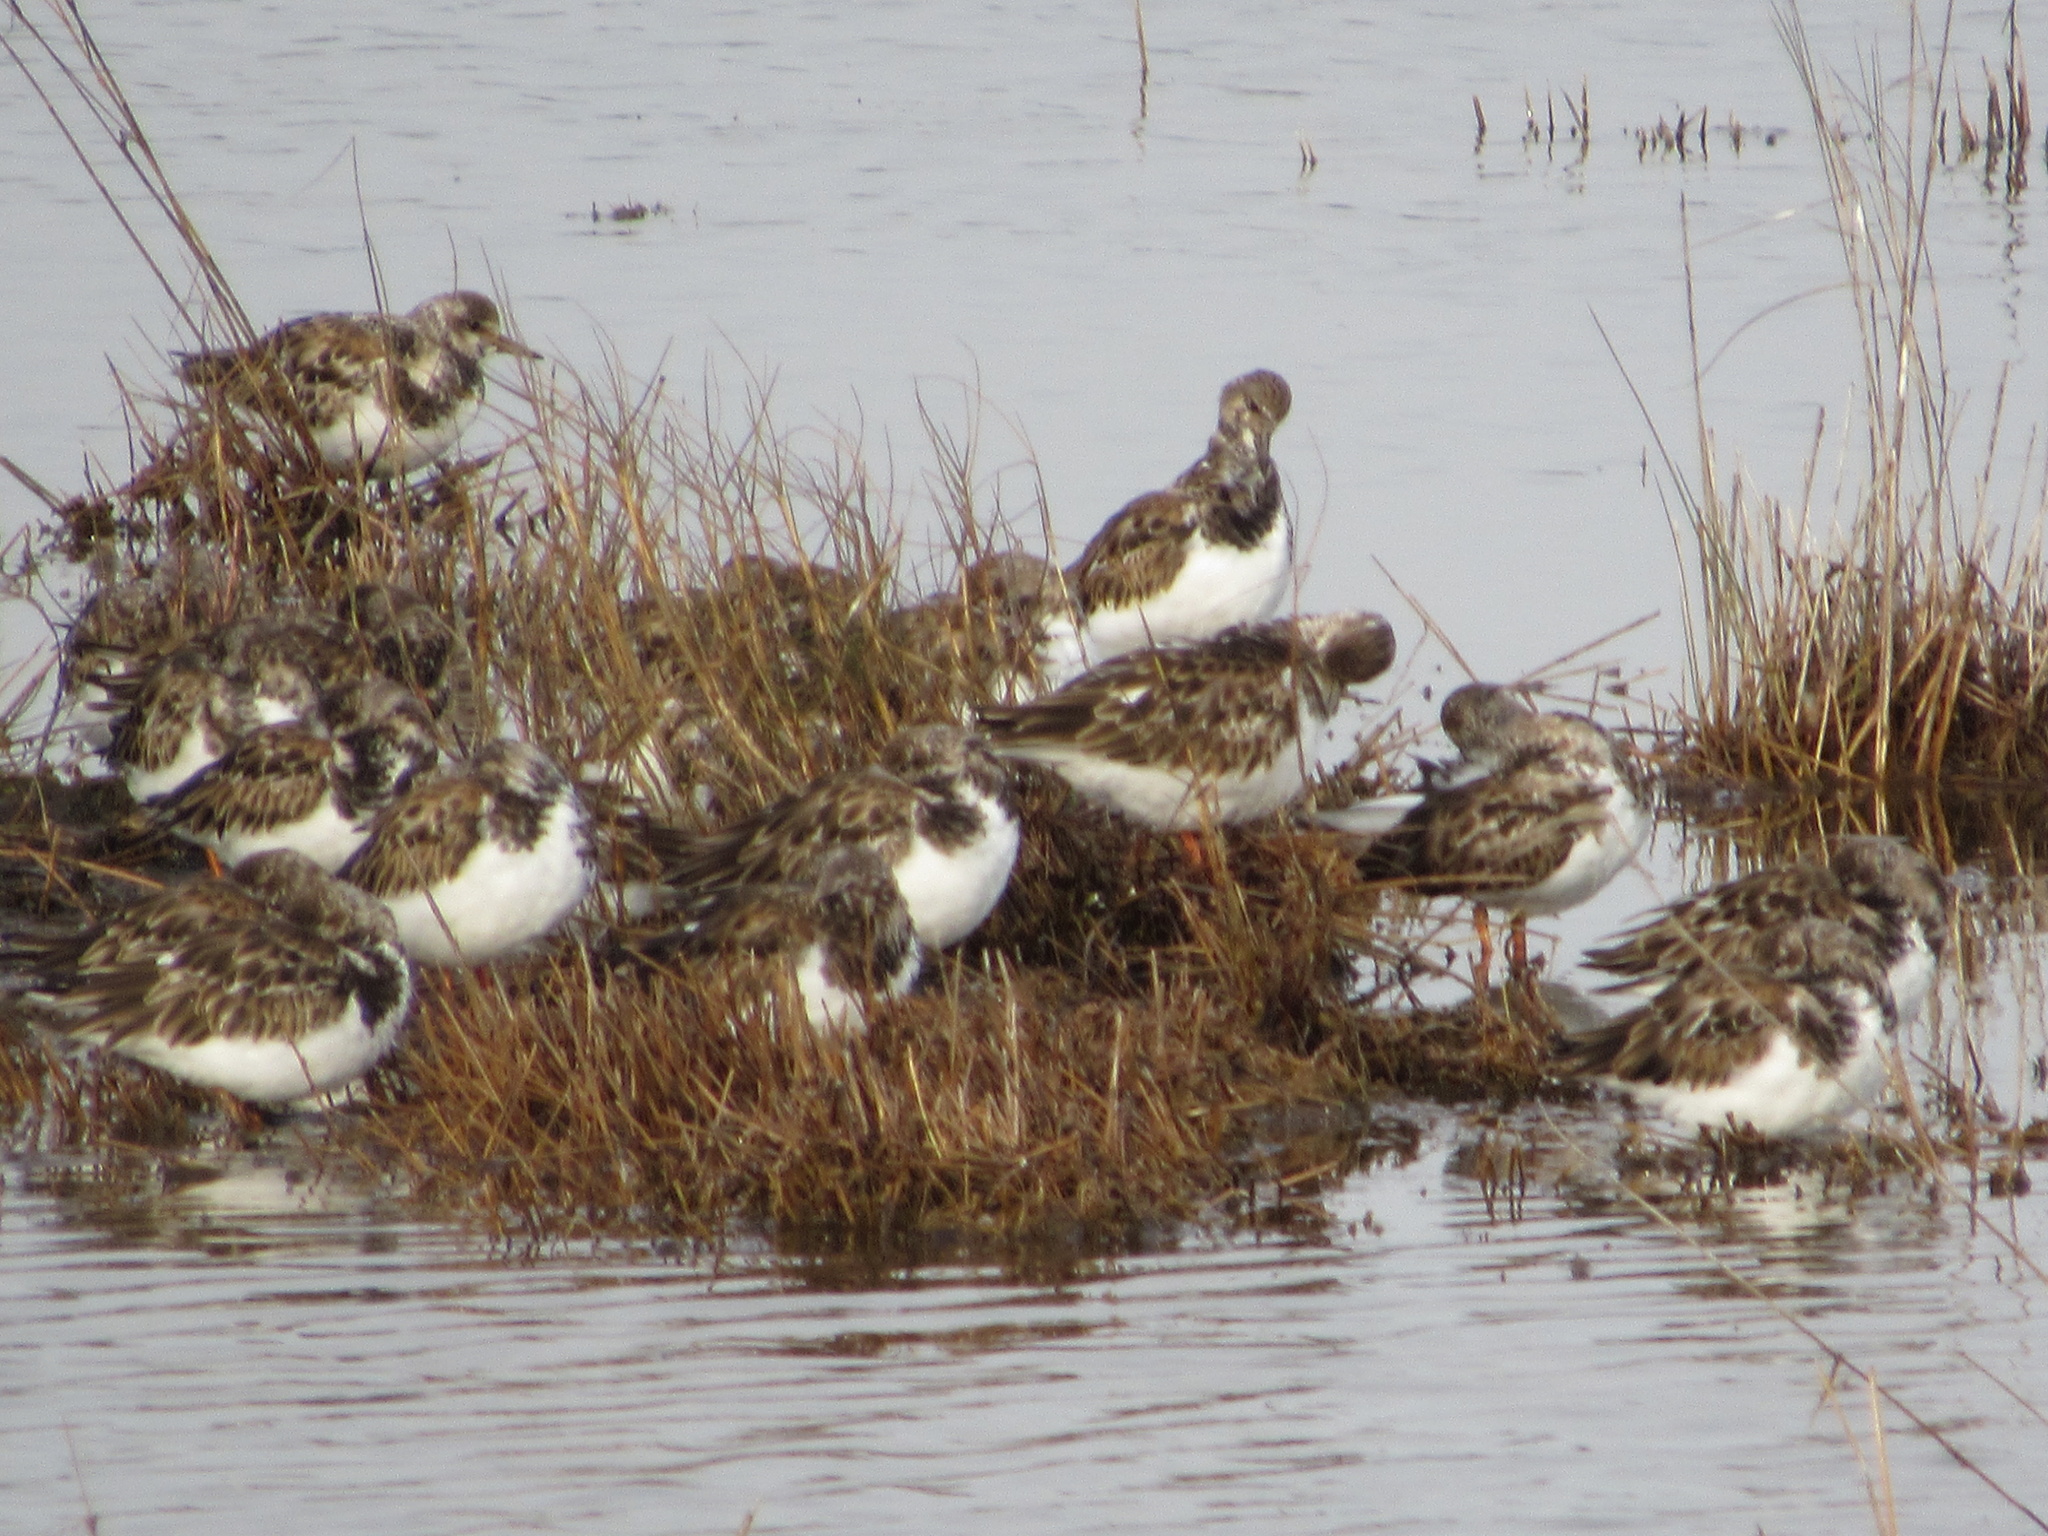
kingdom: Animalia
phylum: Chordata
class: Aves
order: Charadriiformes
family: Scolopacidae
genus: Arenaria
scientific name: Arenaria interpres
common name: Ruddy turnstone
